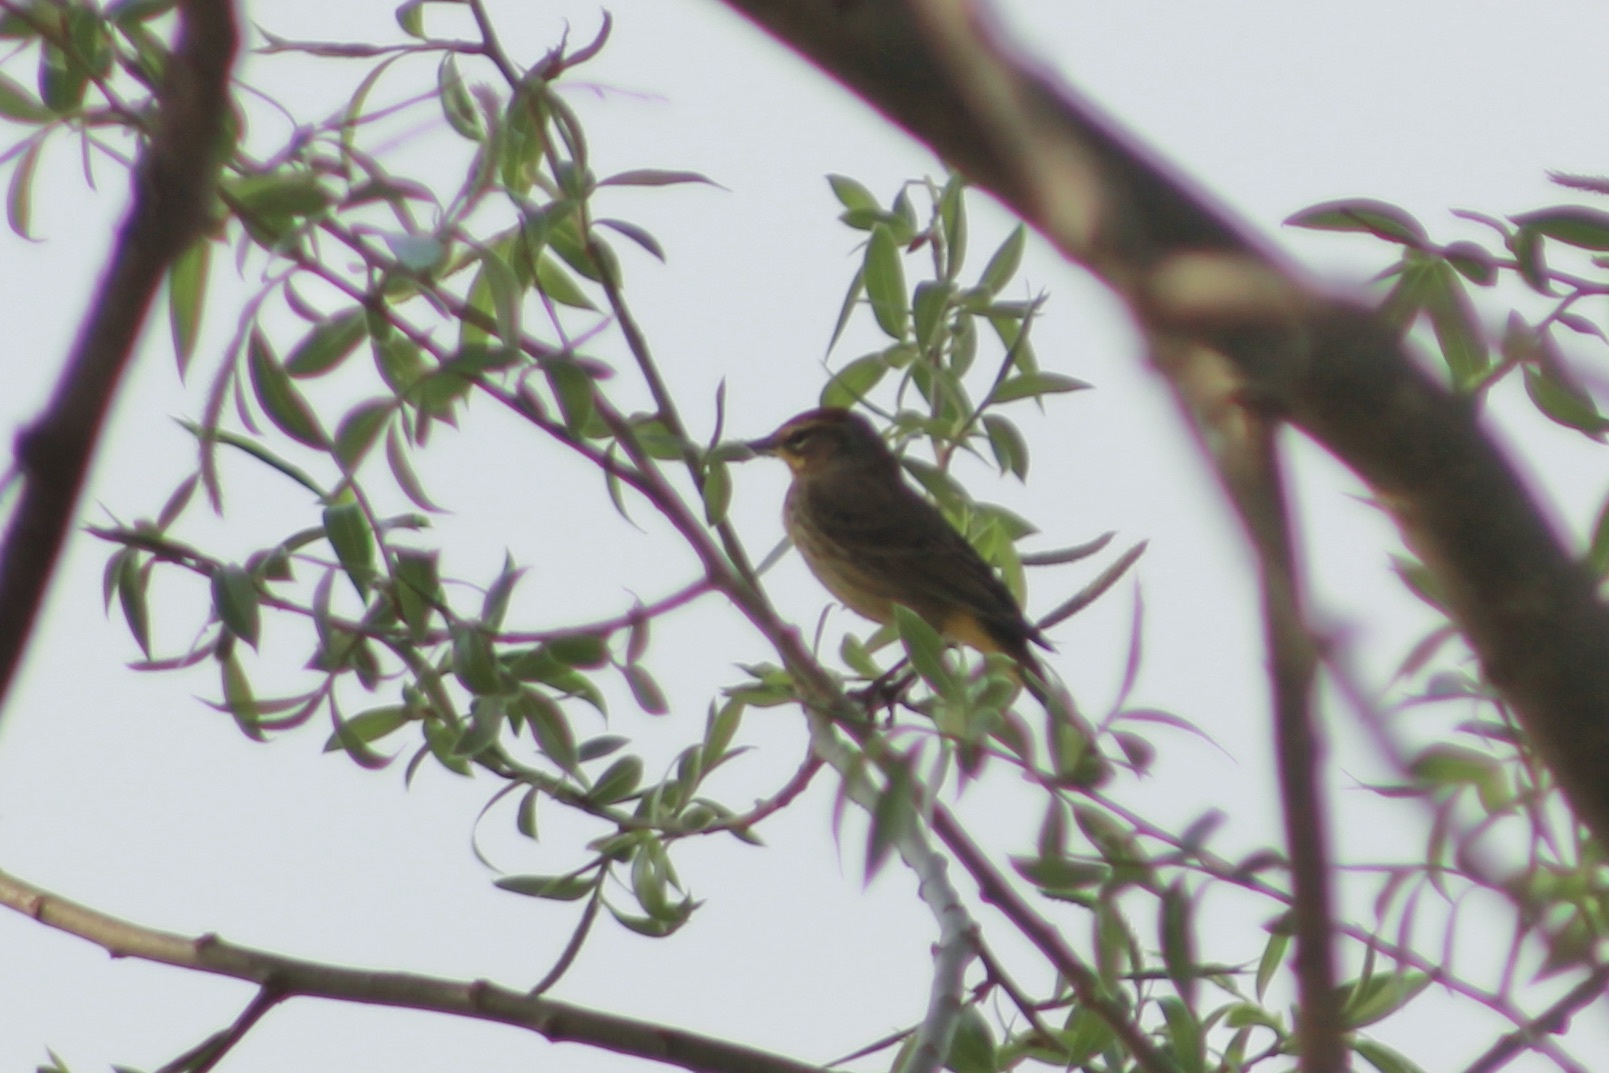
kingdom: Animalia
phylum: Chordata
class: Aves
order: Passeriformes
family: Parulidae
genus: Parkesia
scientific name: Parkesia noveboracensis
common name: Northern waterthrush
